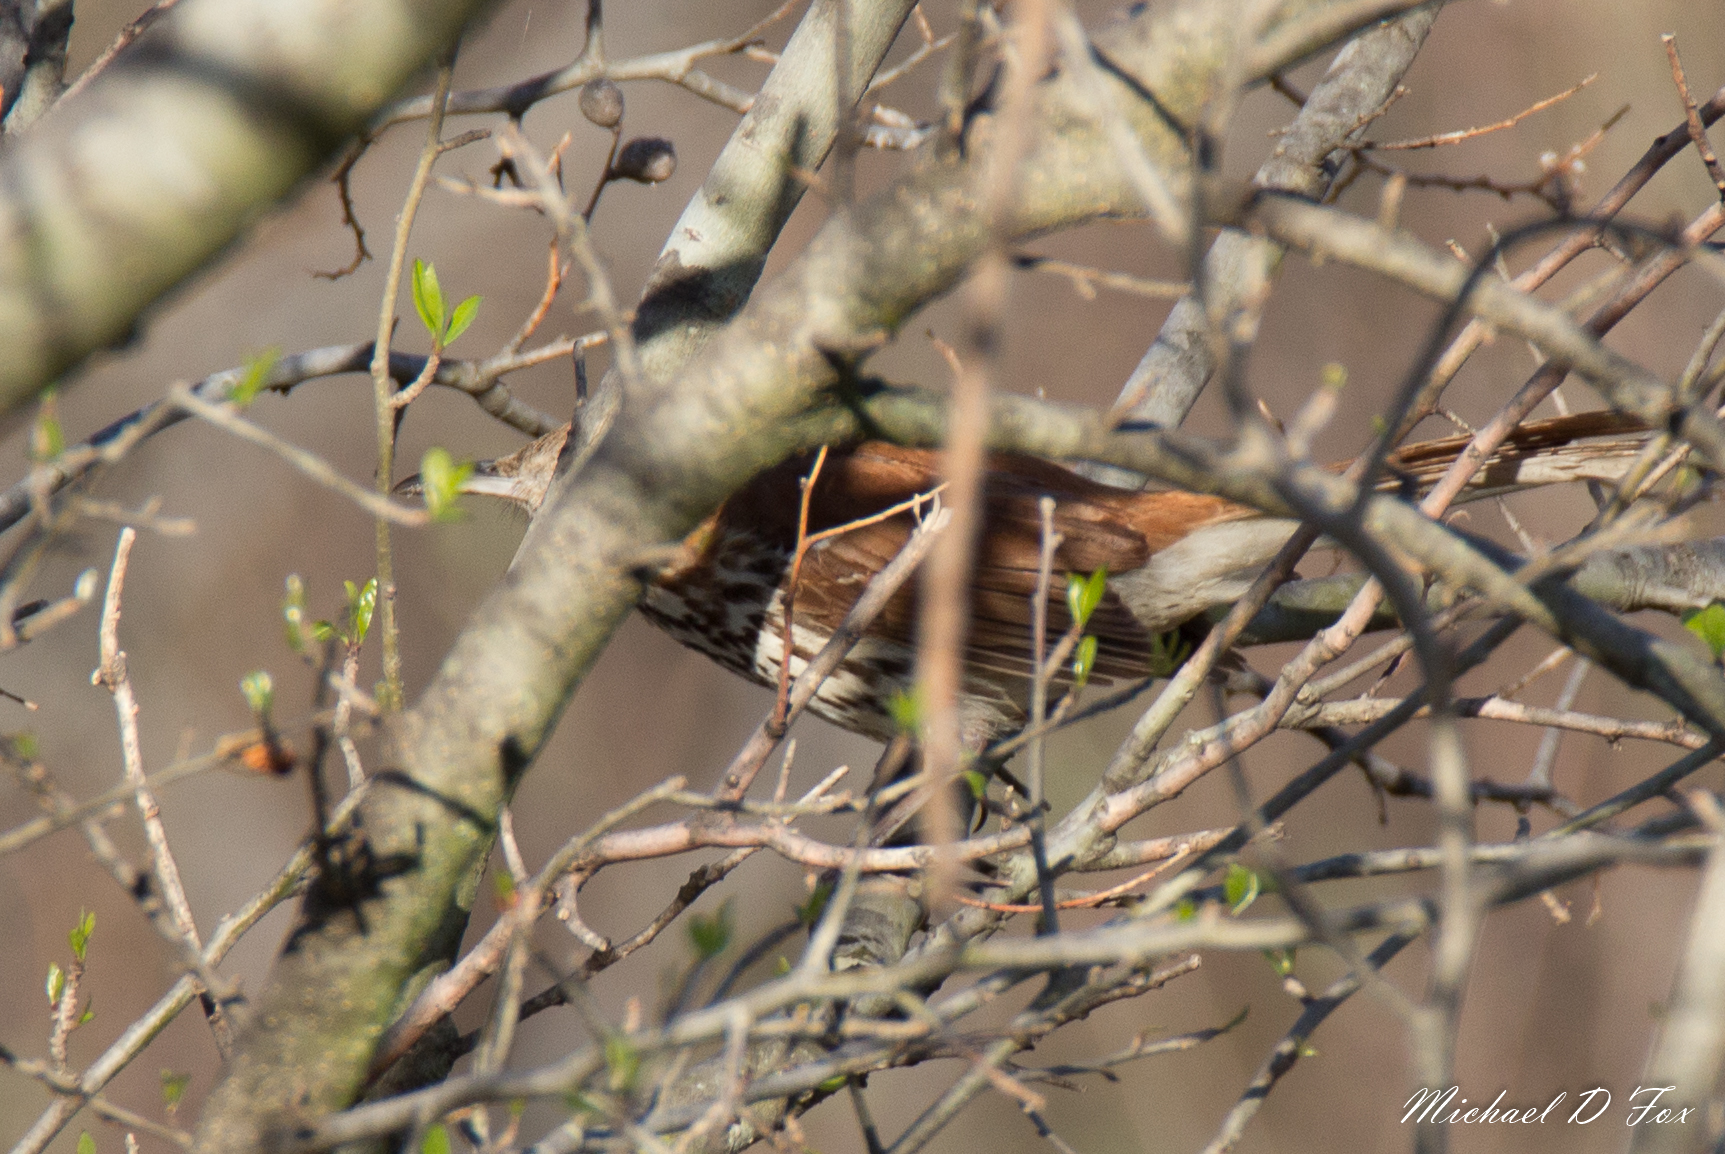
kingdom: Animalia
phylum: Chordata
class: Aves
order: Passeriformes
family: Mimidae
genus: Toxostoma
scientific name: Toxostoma rufum
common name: Brown thrasher
